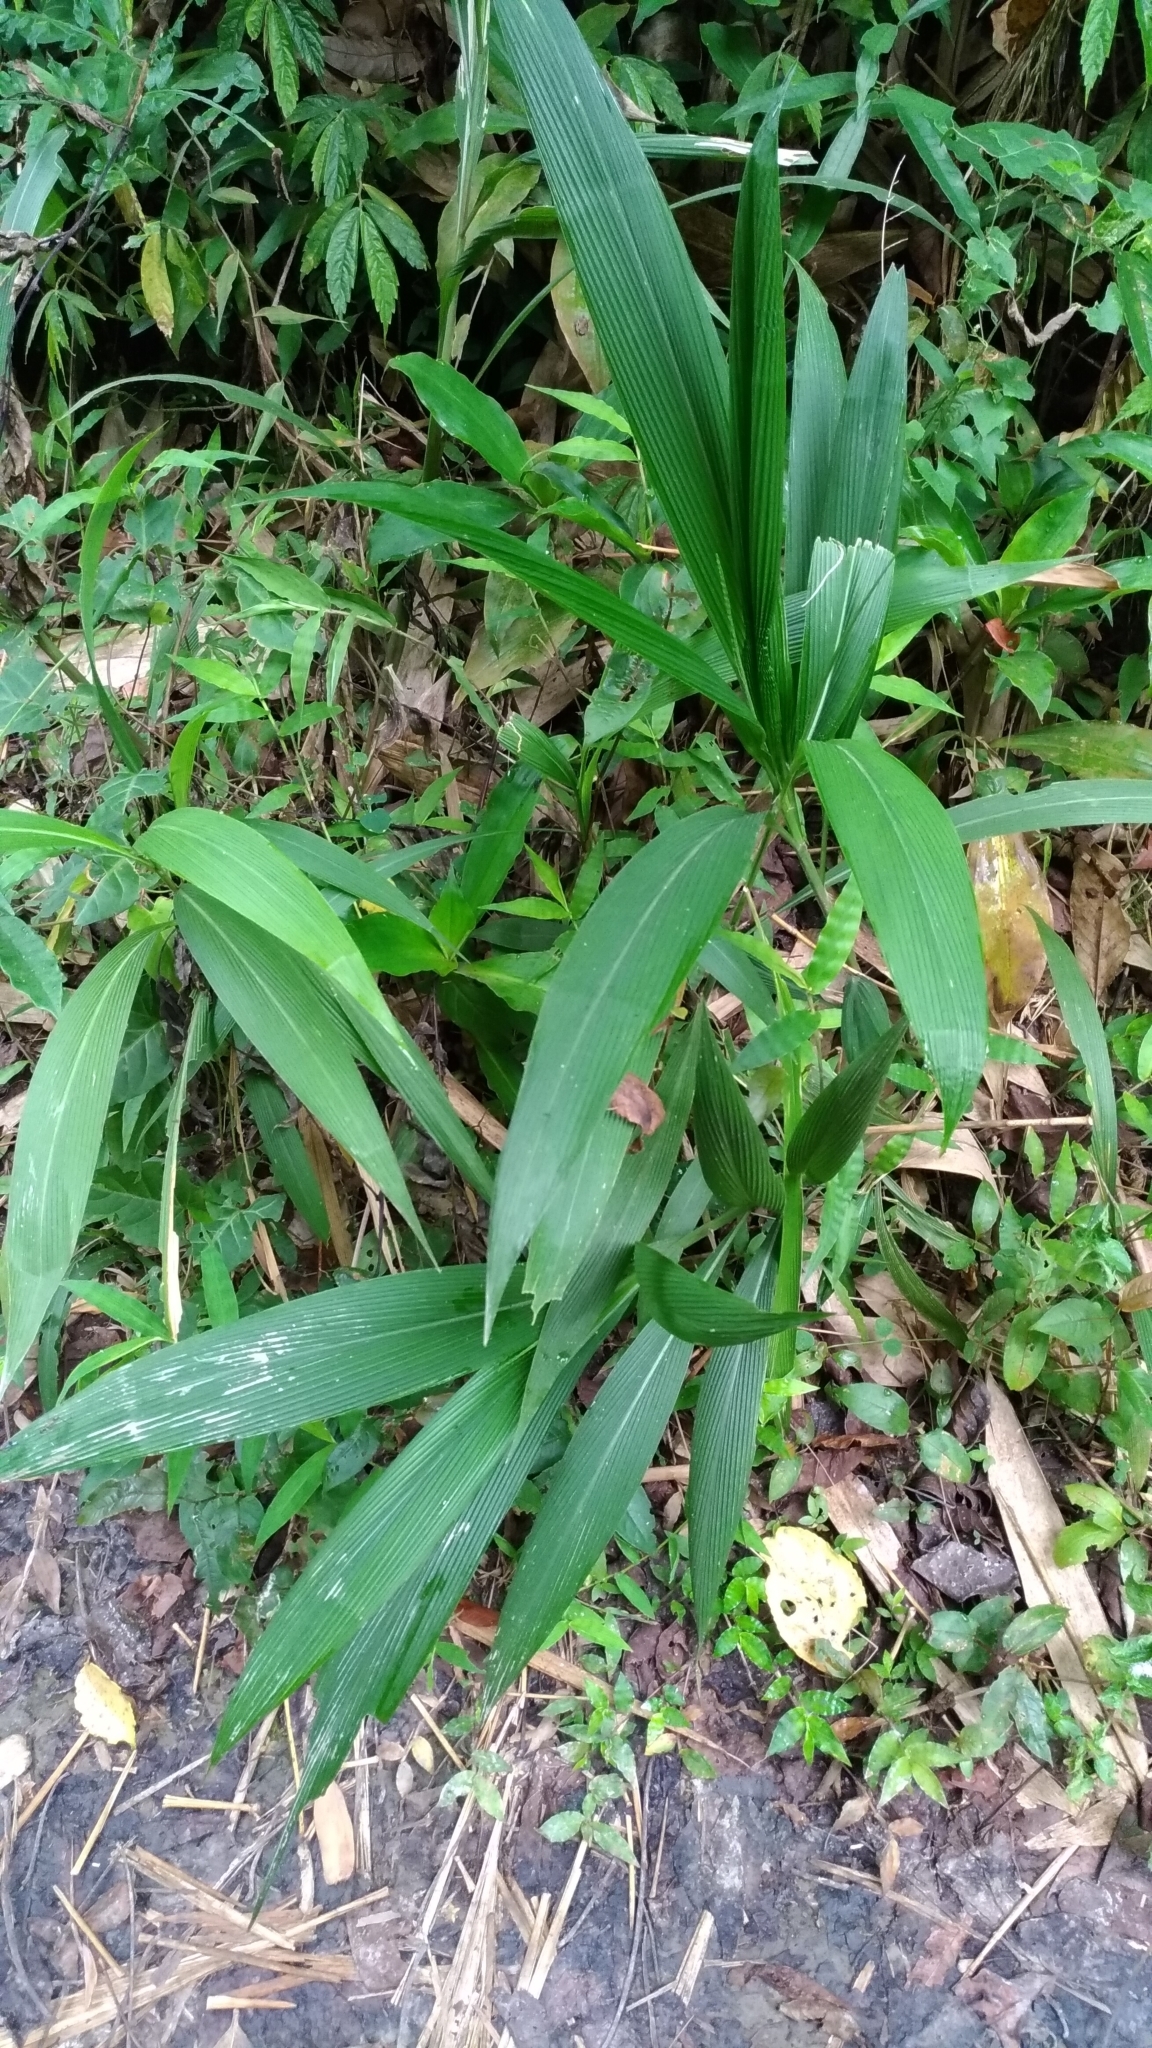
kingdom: Plantae
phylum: Tracheophyta
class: Liliopsida
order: Poales
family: Poaceae
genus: Setaria
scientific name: Setaria palmifolia
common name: Broadleaved bristlegrass
